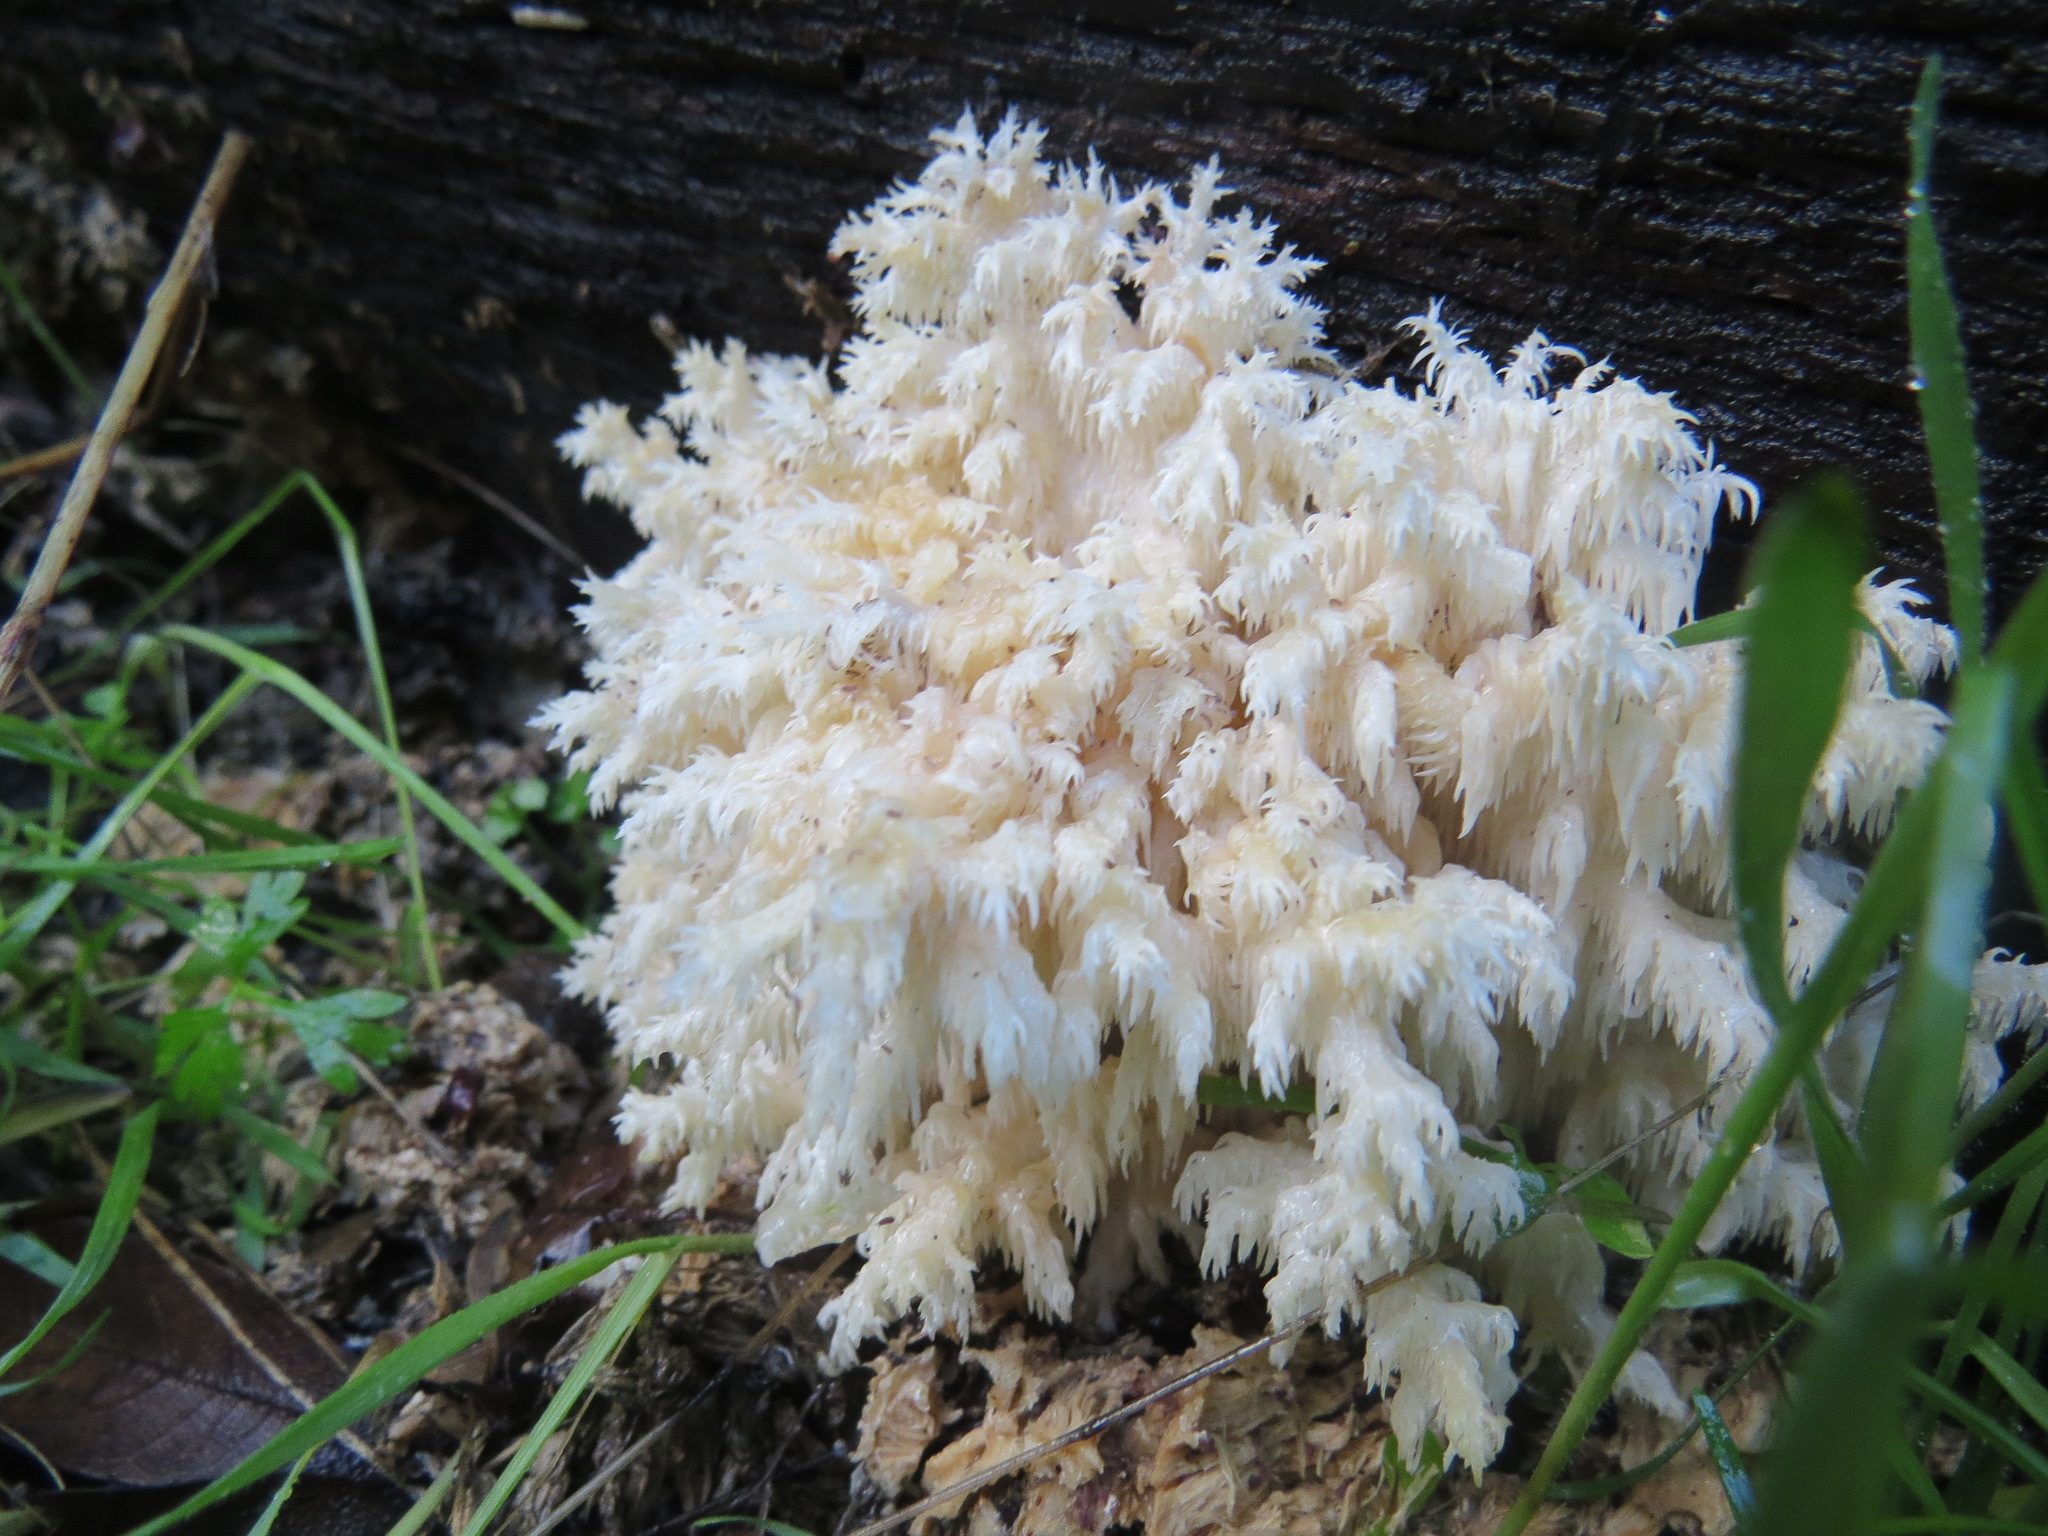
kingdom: Fungi
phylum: Basidiomycota
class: Agaricomycetes
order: Russulales
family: Hericiaceae
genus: Hericium
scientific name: Hericium coralloides
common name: Coral tooth
